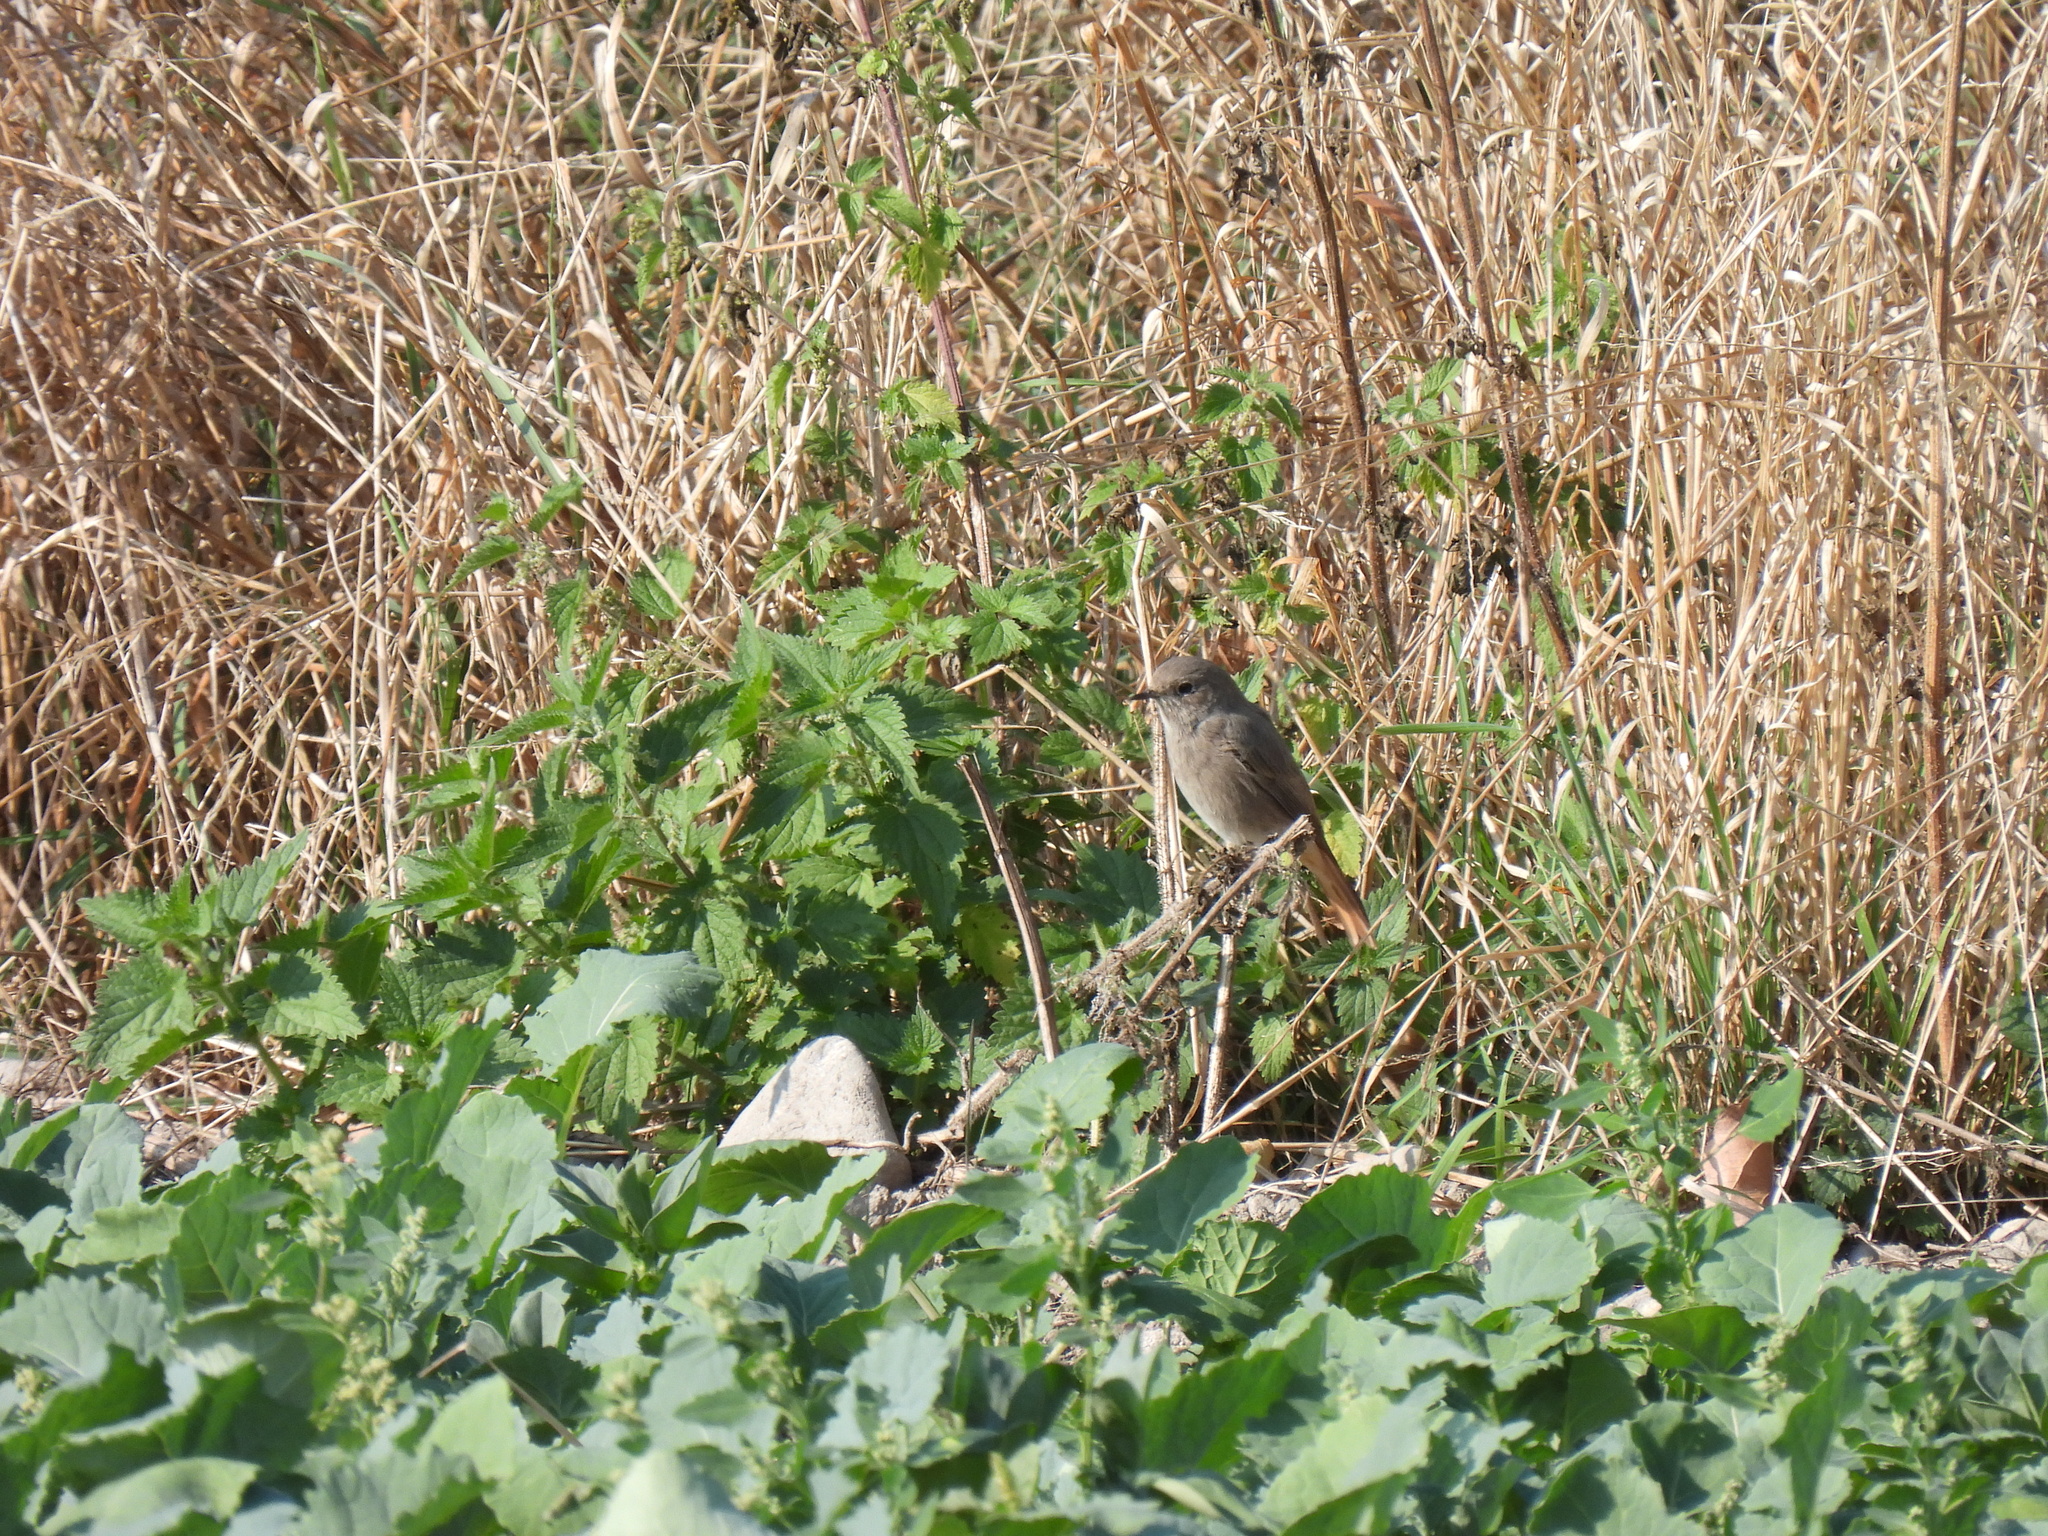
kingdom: Animalia
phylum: Chordata
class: Aves
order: Passeriformes
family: Muscicapidae
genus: Phoenicurus
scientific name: Phoenicurus ochruros
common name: Black redstart
